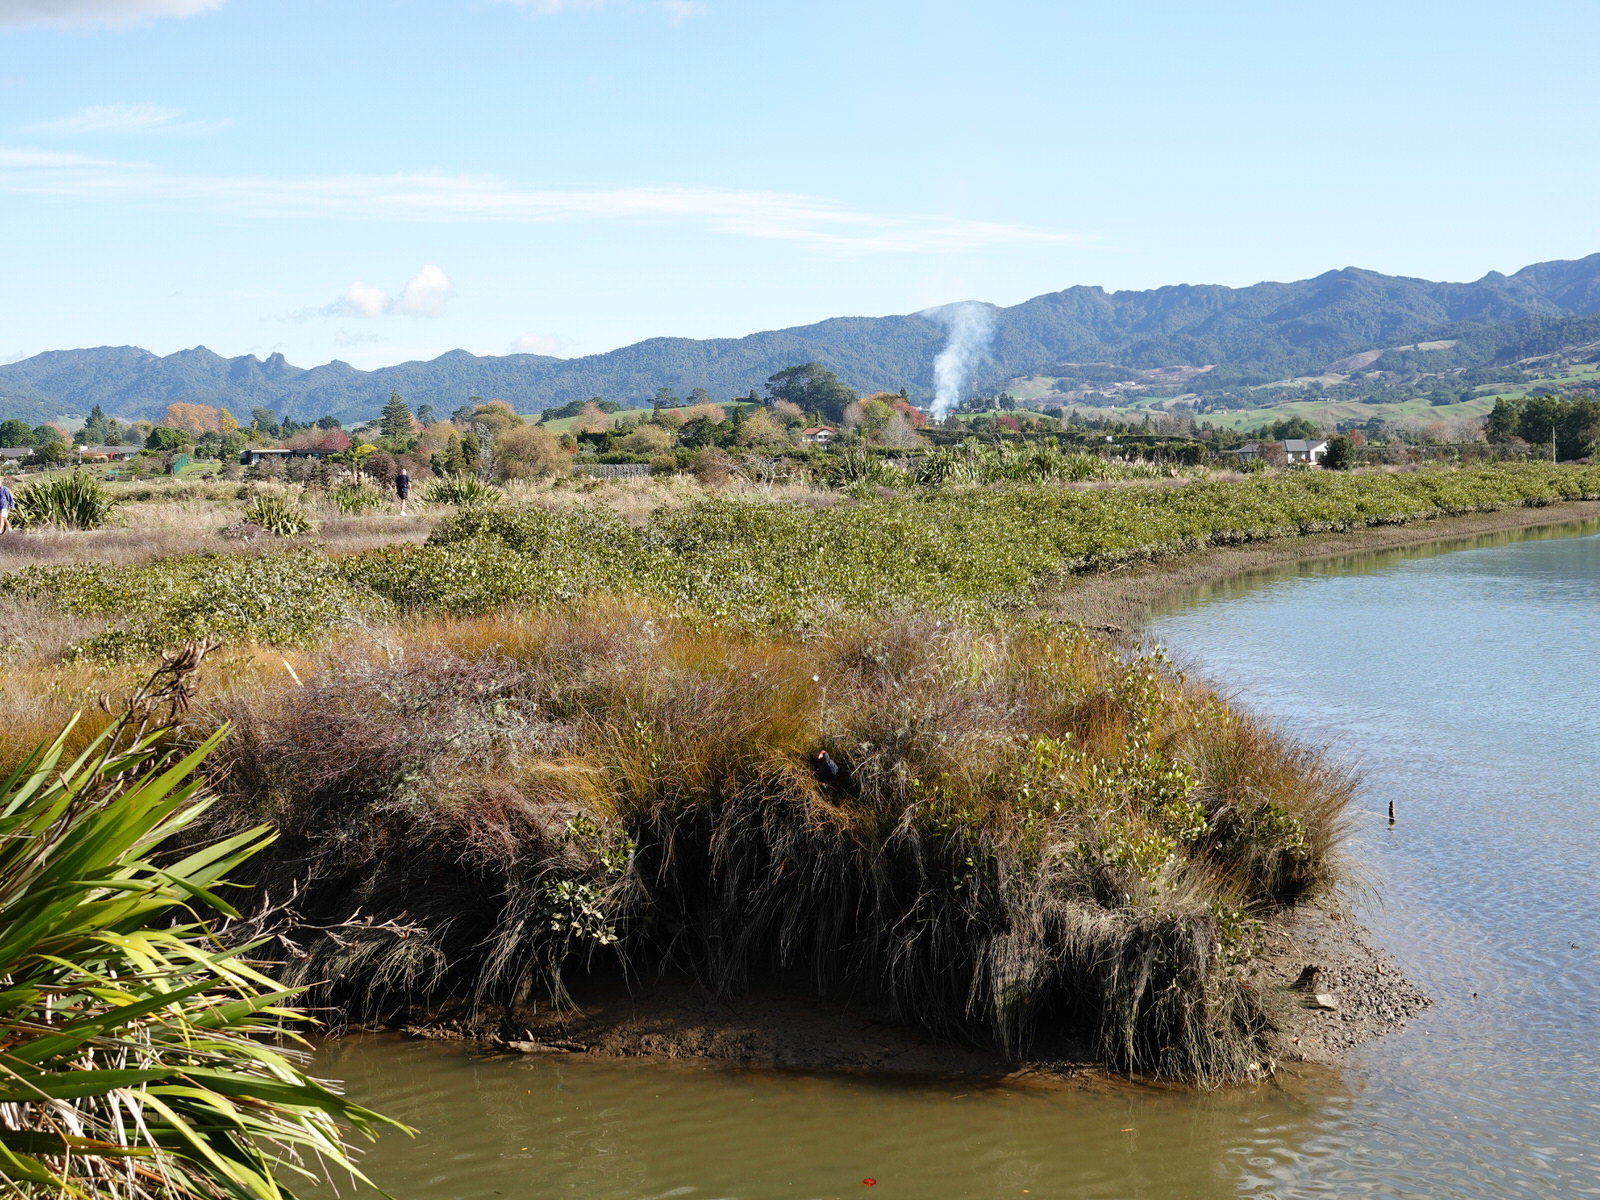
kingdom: Animalia
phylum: Chordata
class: Aves
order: Gruiformes
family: Rallidae
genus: Porphyrio
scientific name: Porphyrio melanotus
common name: Australasian swamphen
